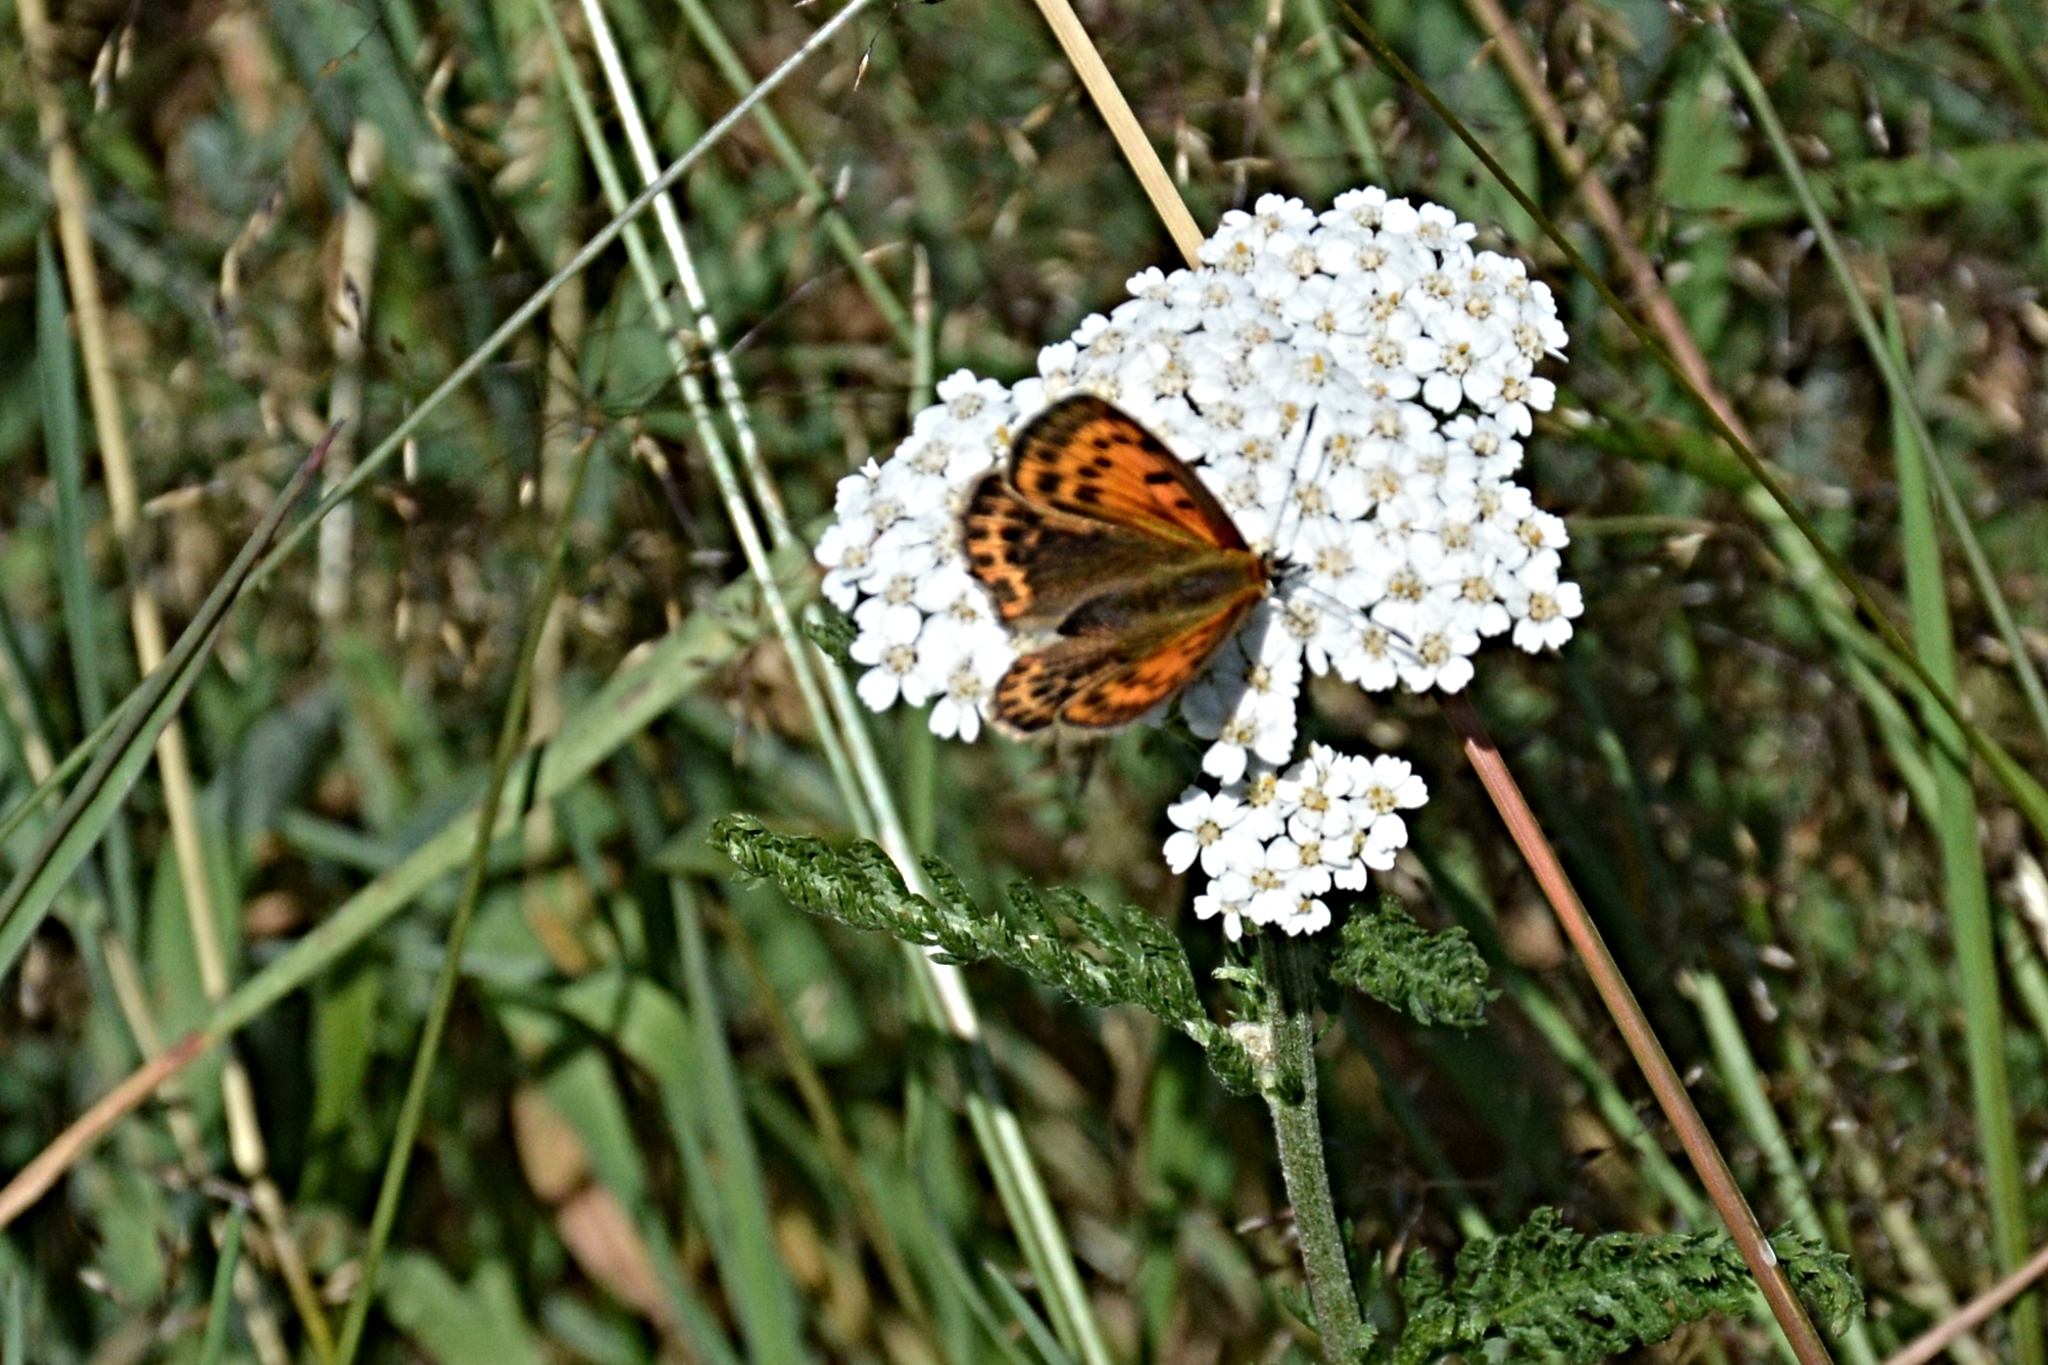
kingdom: Animalia
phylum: Arthropoda
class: Insecta
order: Lepidoptera
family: Lycaenidae
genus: Lycaena
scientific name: Lycaena virgaureae
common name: Scarce copper
